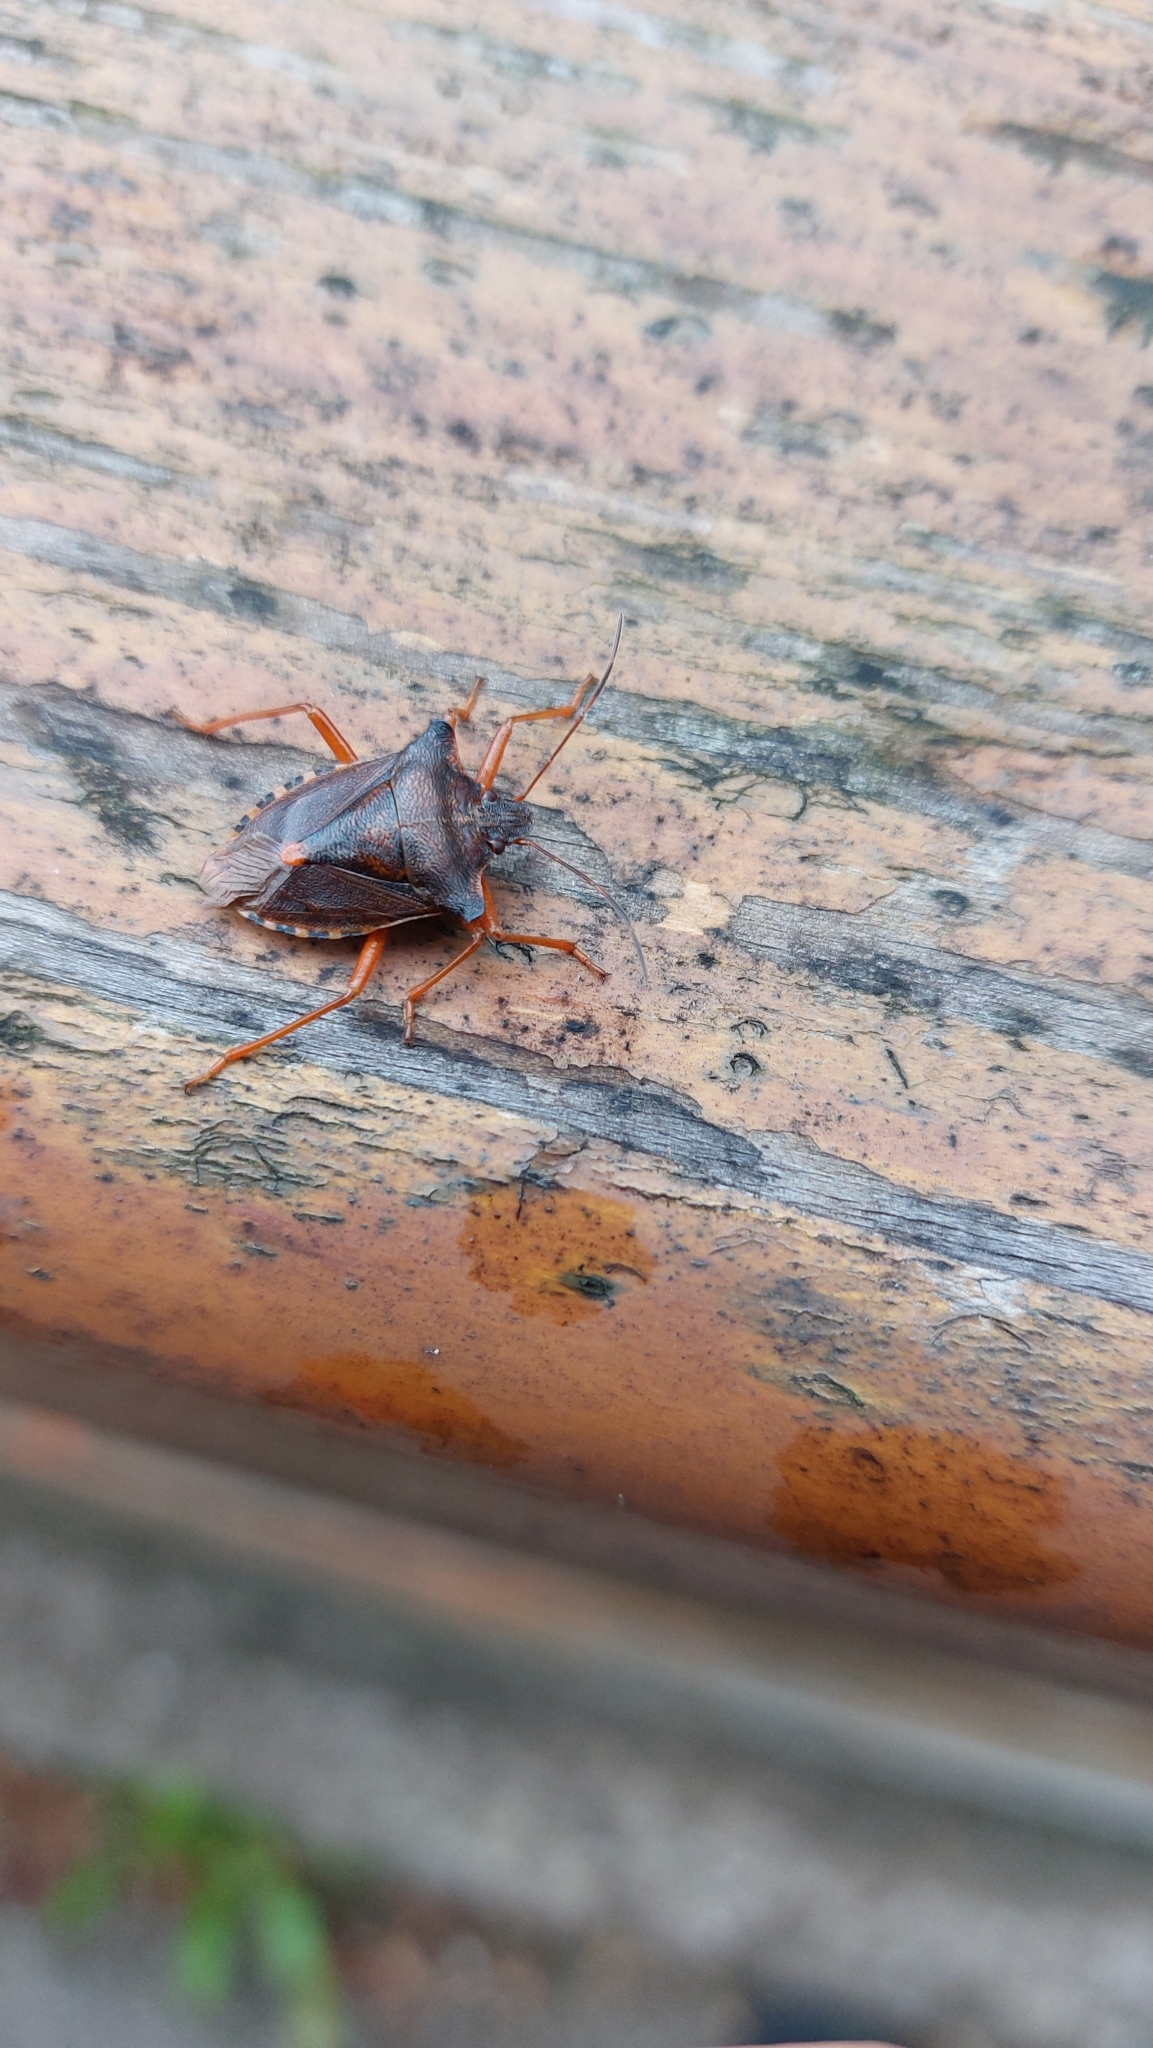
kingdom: Animalia
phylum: Arthropoda
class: Insecta
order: Hemiptera
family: Pentatomidae
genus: Pentatoma
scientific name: Pentatoma rufipes
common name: Forest bug
